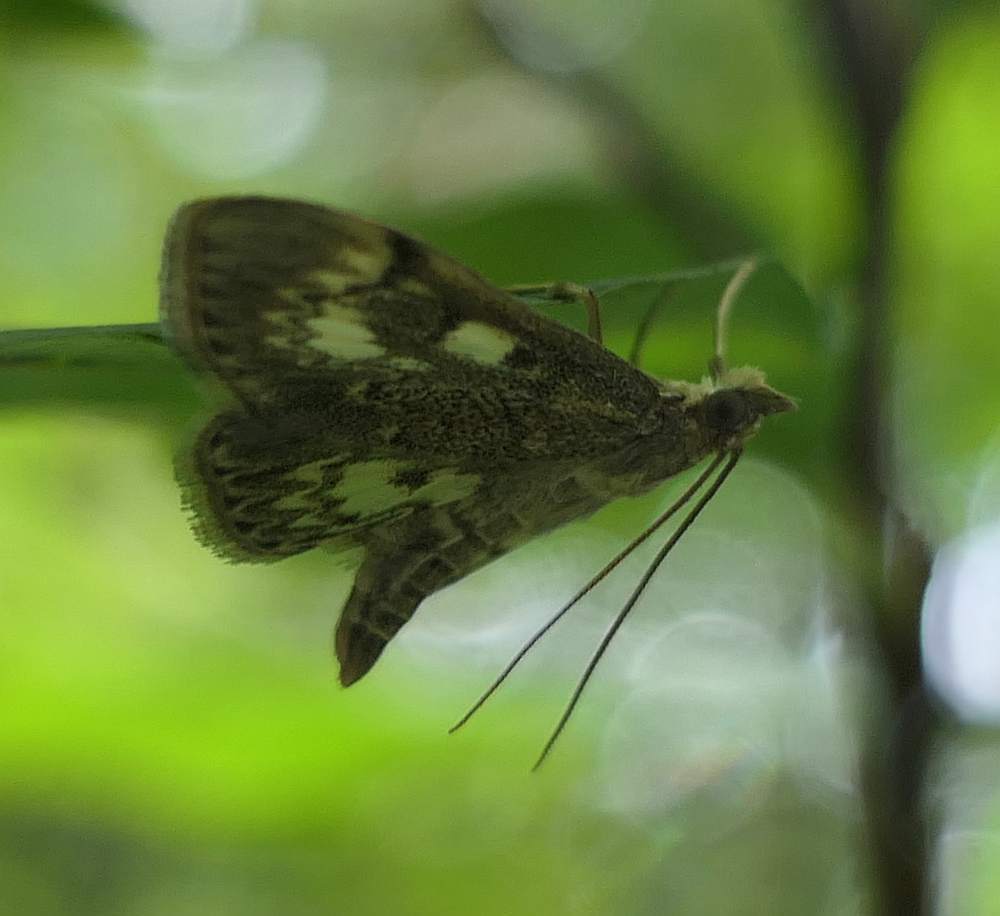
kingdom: Animalia
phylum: Arthropoda
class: Insecta
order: Lepidoptera
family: Crambidae
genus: Anania
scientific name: Anania
